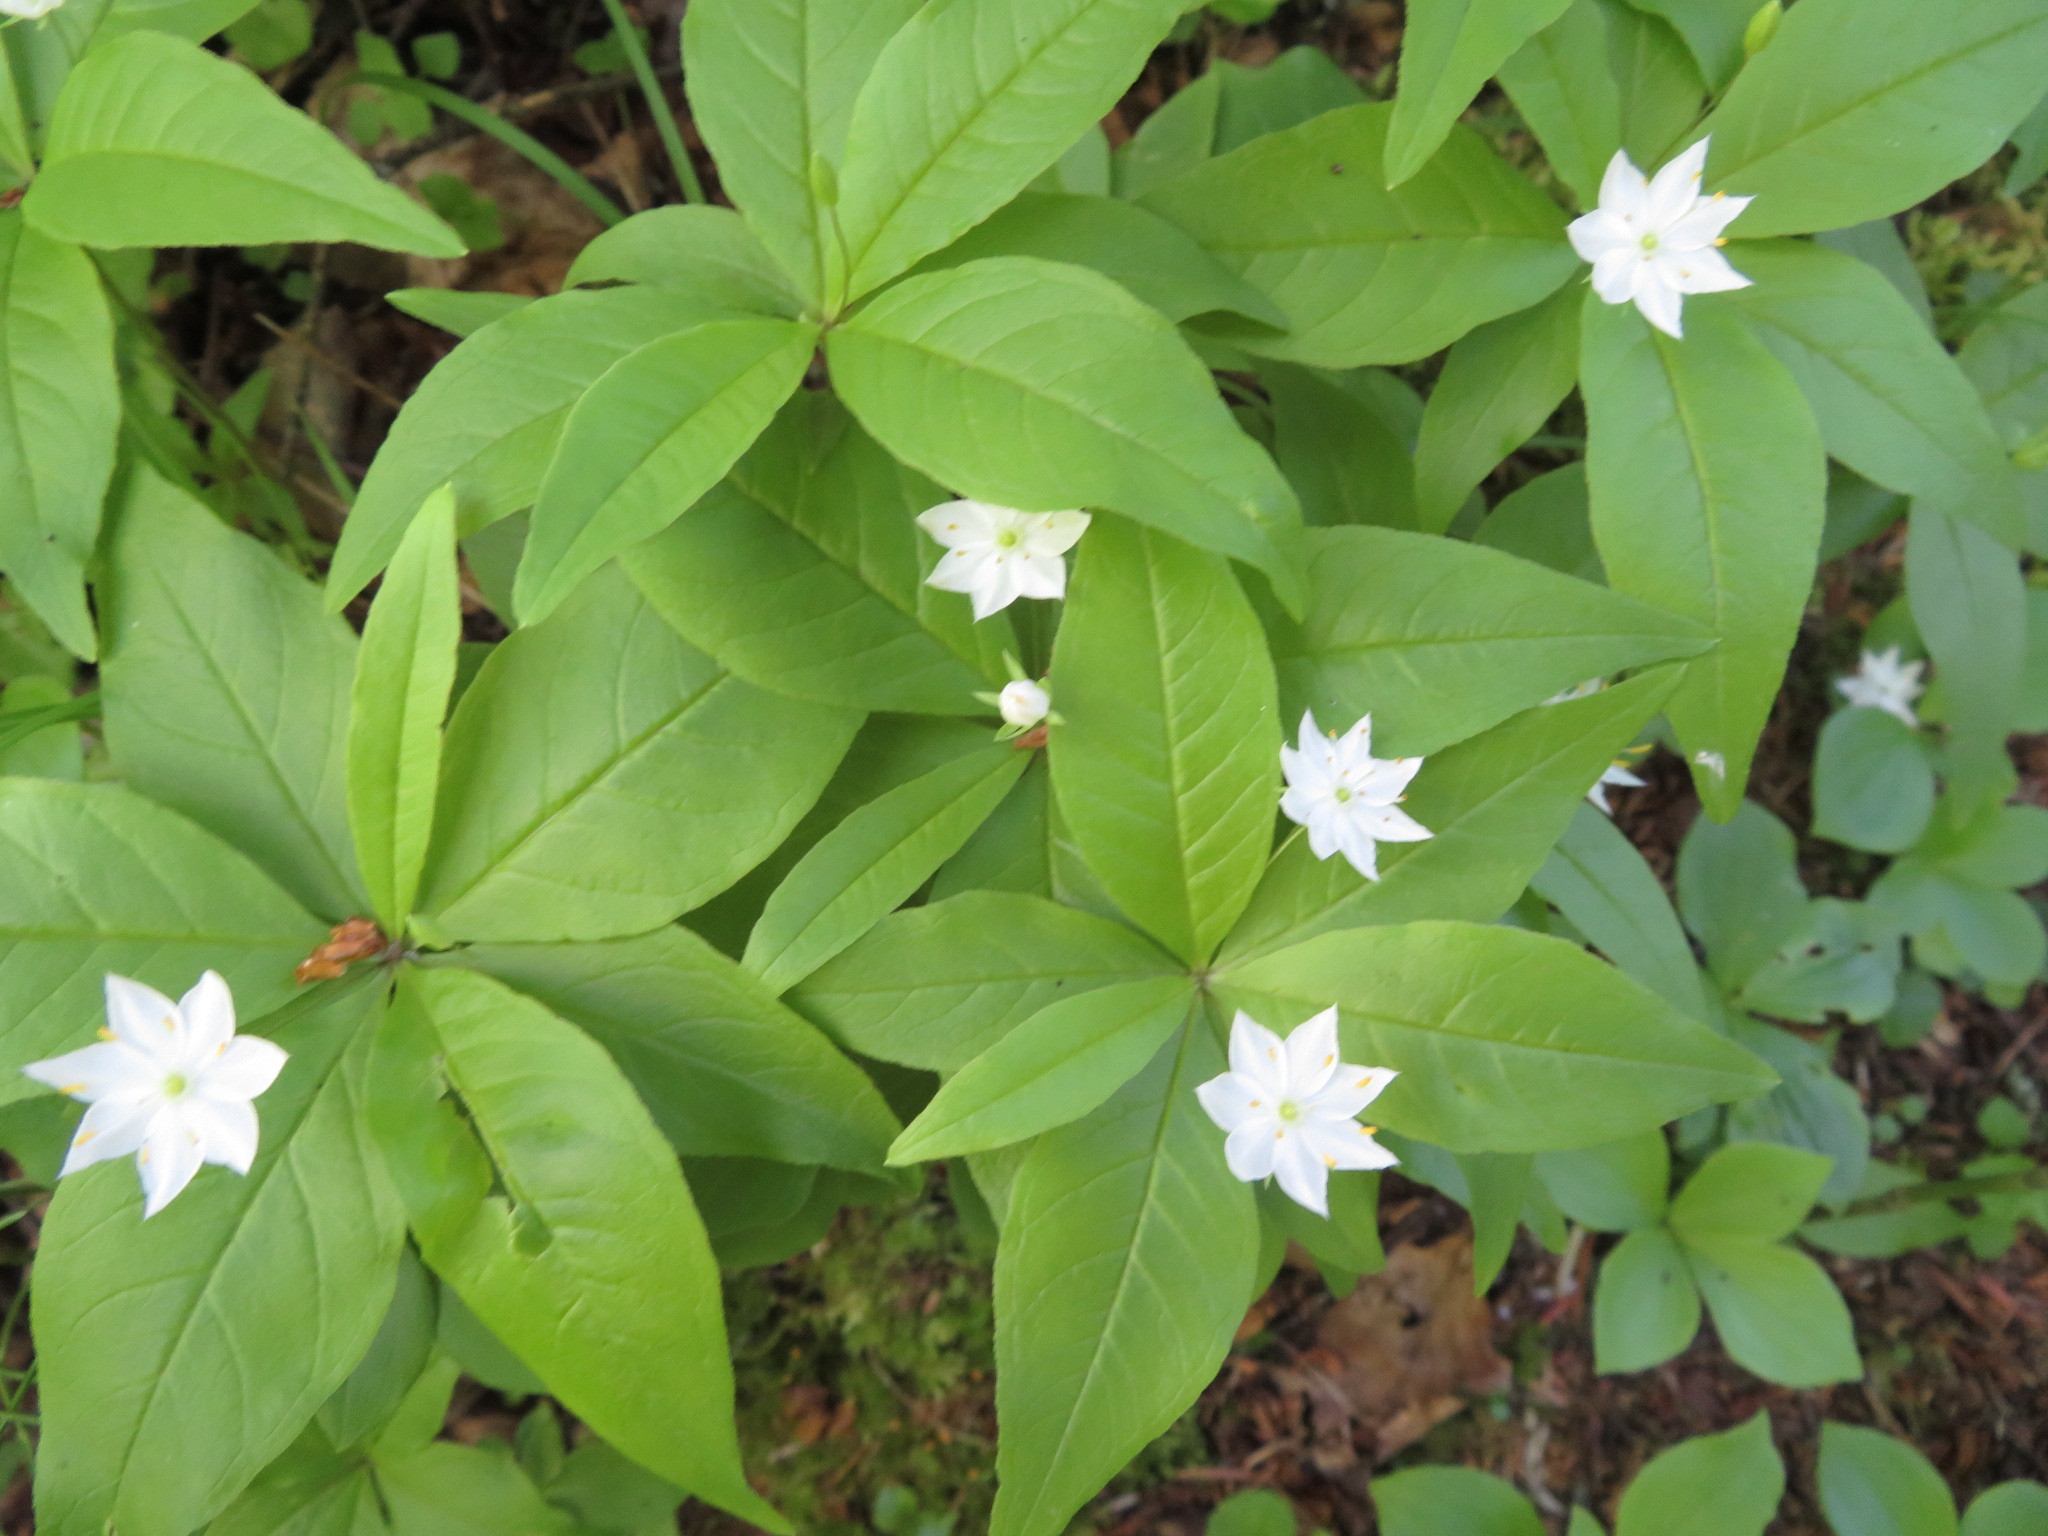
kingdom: Plantae
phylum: Tracheophyta
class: Magnoliopsida
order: Ericales
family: Primulaceae
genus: Lysimachia
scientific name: Lysimachia borealis
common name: American starflower
